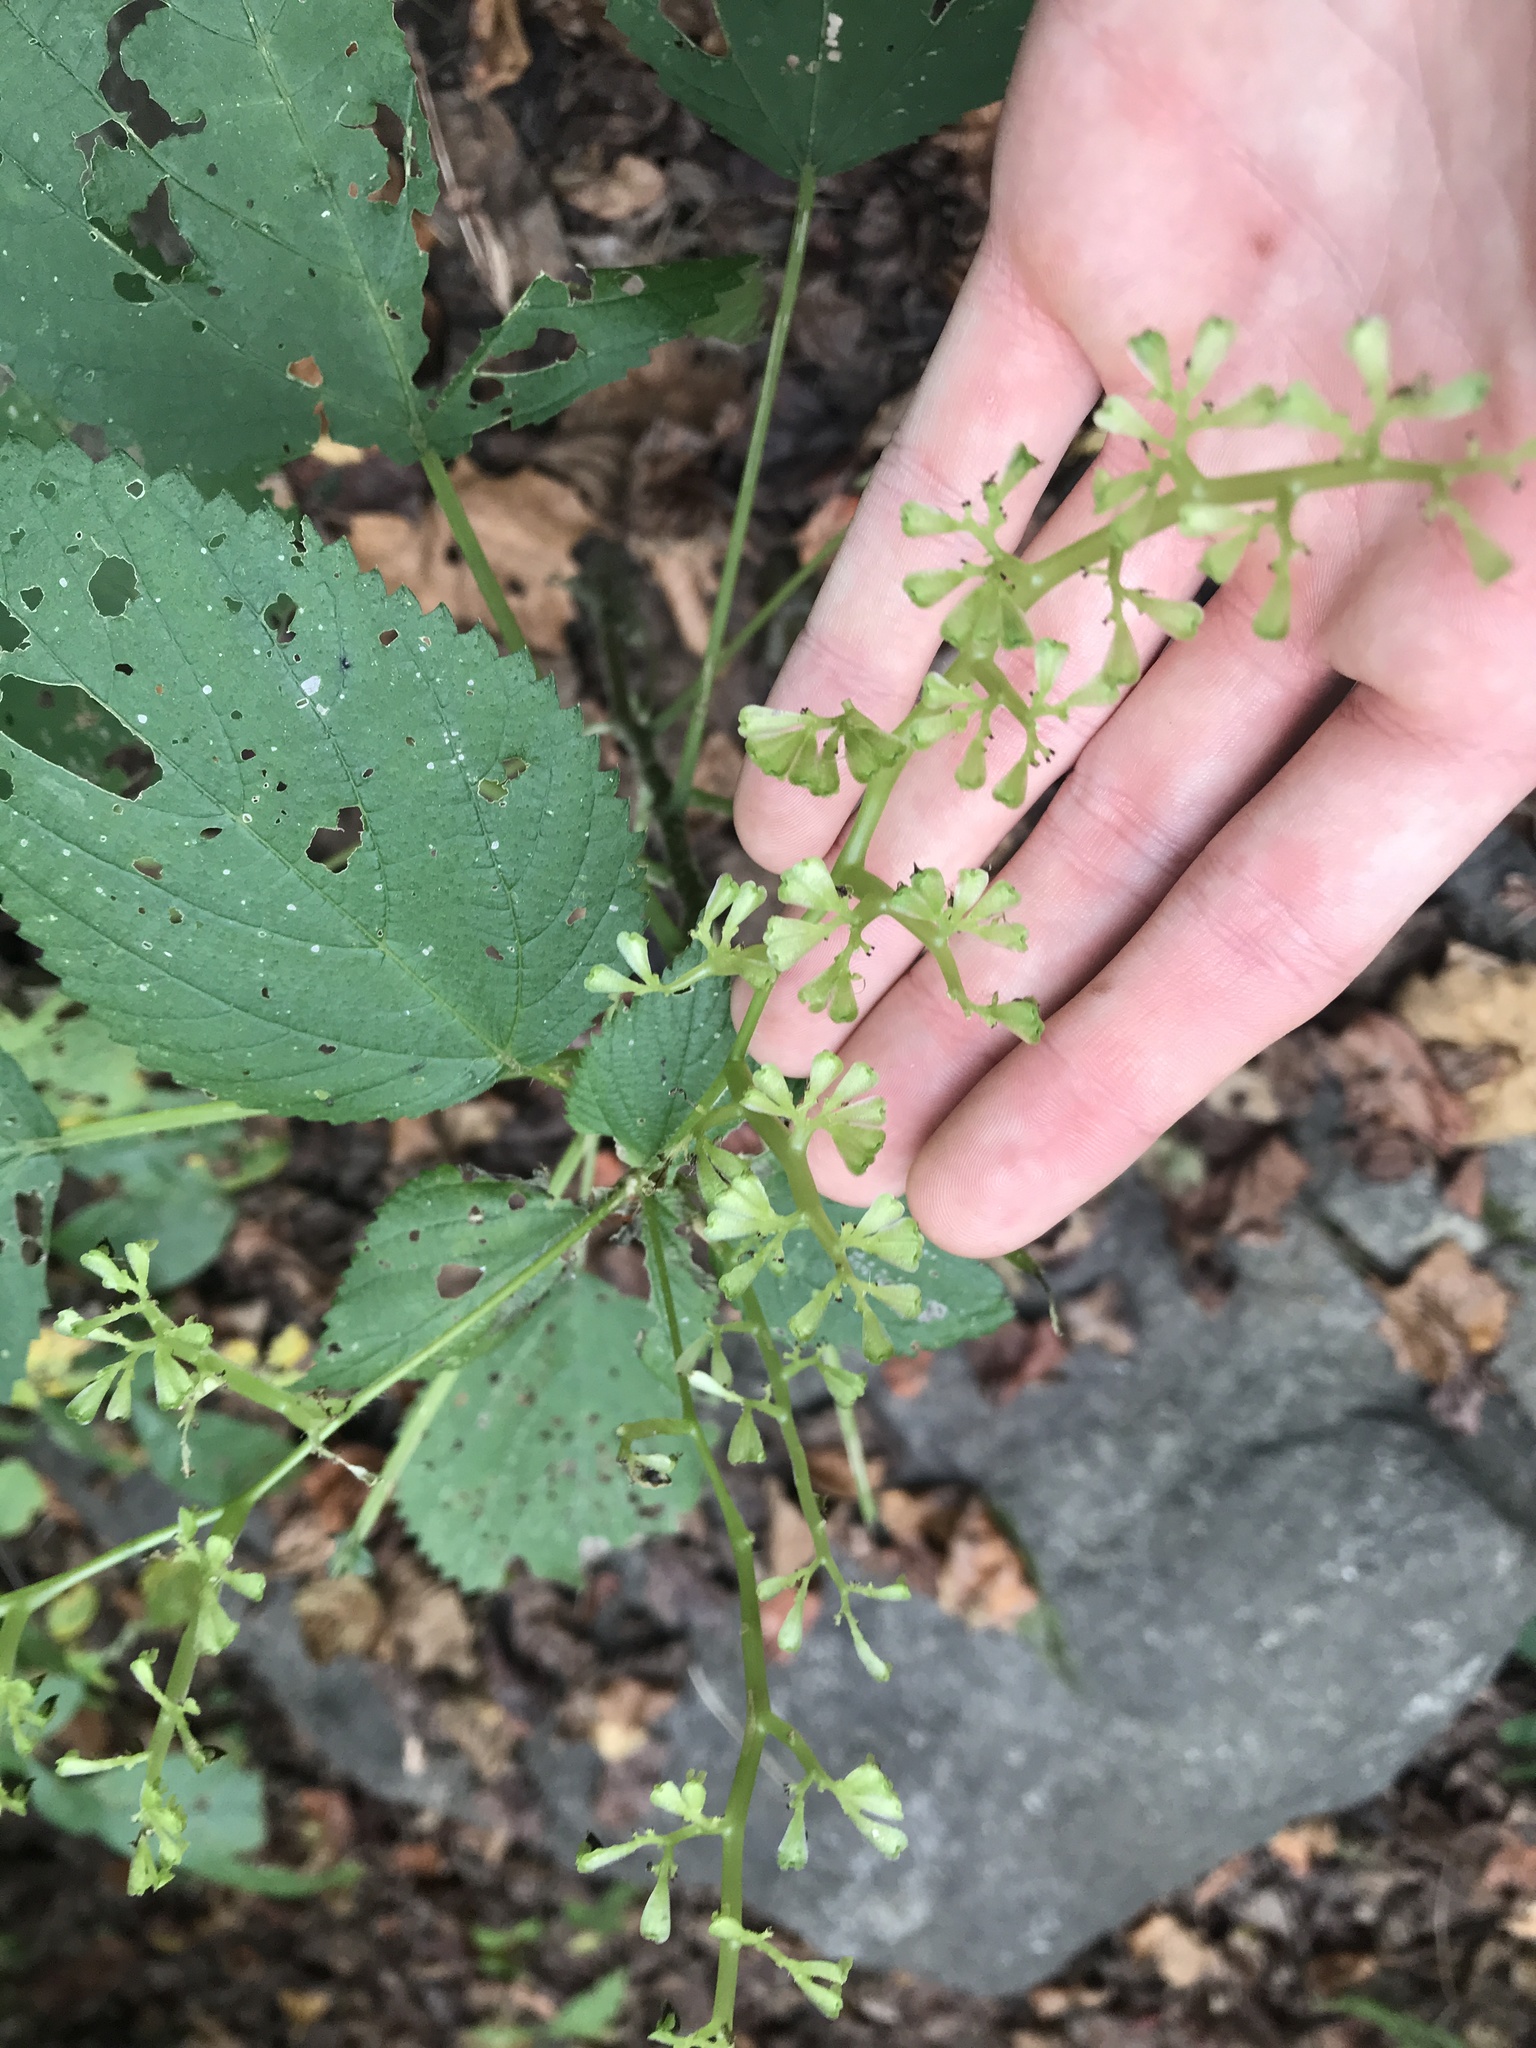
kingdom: Plantae
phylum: Tracheophyta
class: Magnoliopsida
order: Rosales
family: Urticaceae
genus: Laportea
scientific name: Laportea canadensis
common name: Canada nettle
